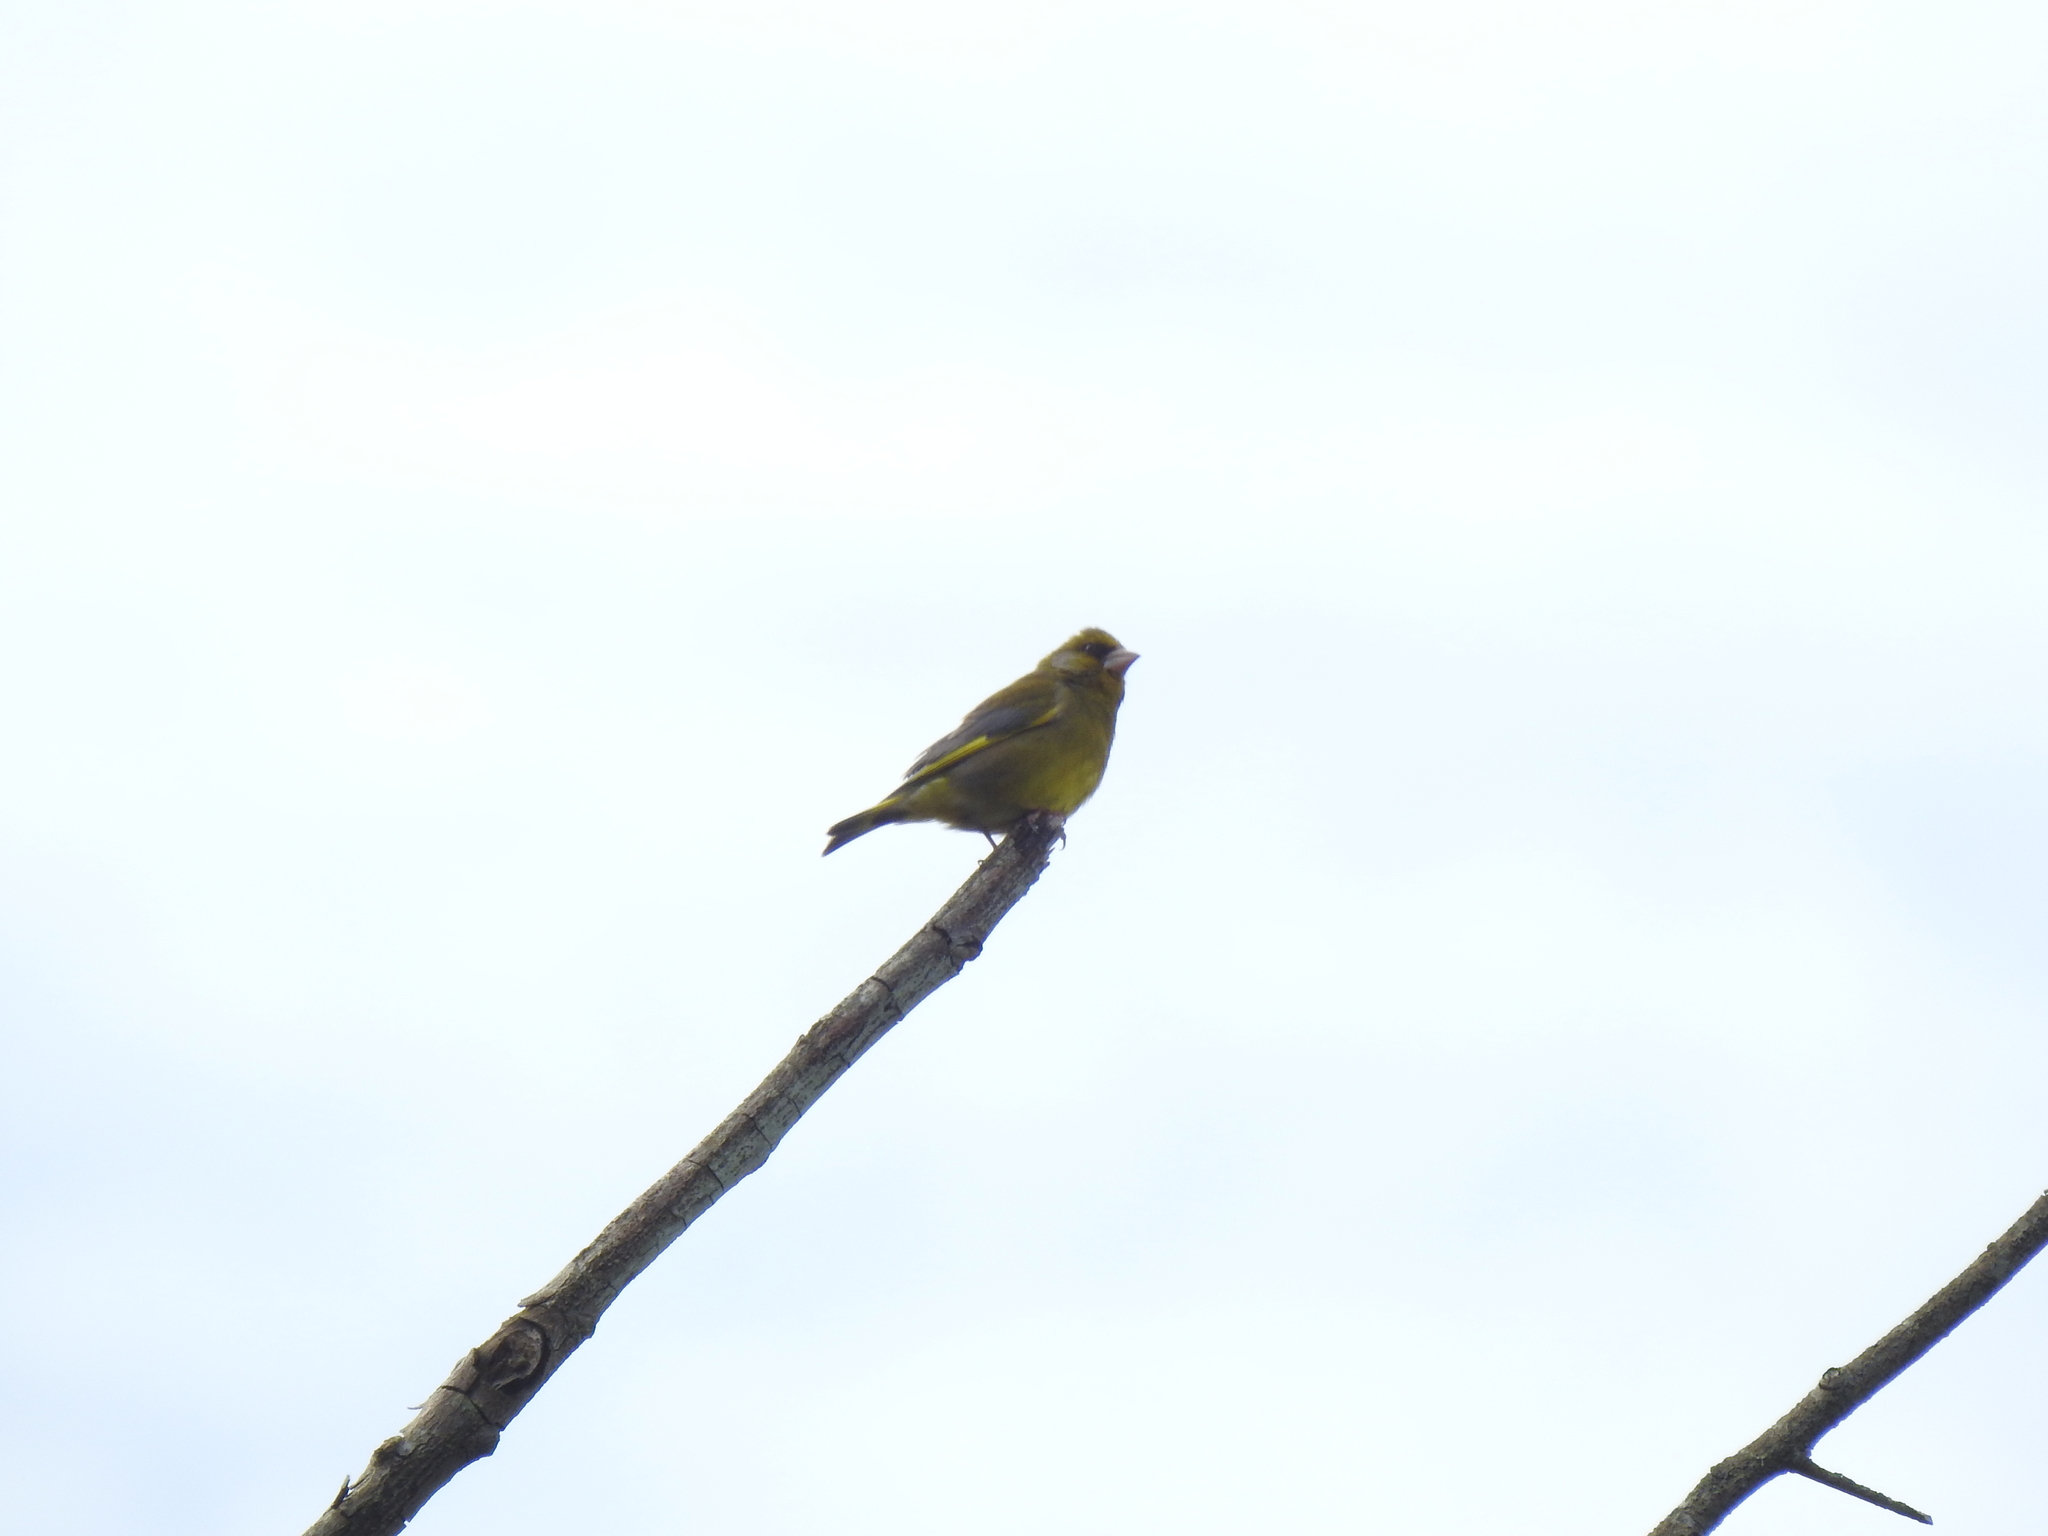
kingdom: Plantae
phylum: Tracheophyta
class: Liliopsida
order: Poales
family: Poaceae
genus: Chloris
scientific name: Chloris chloris
